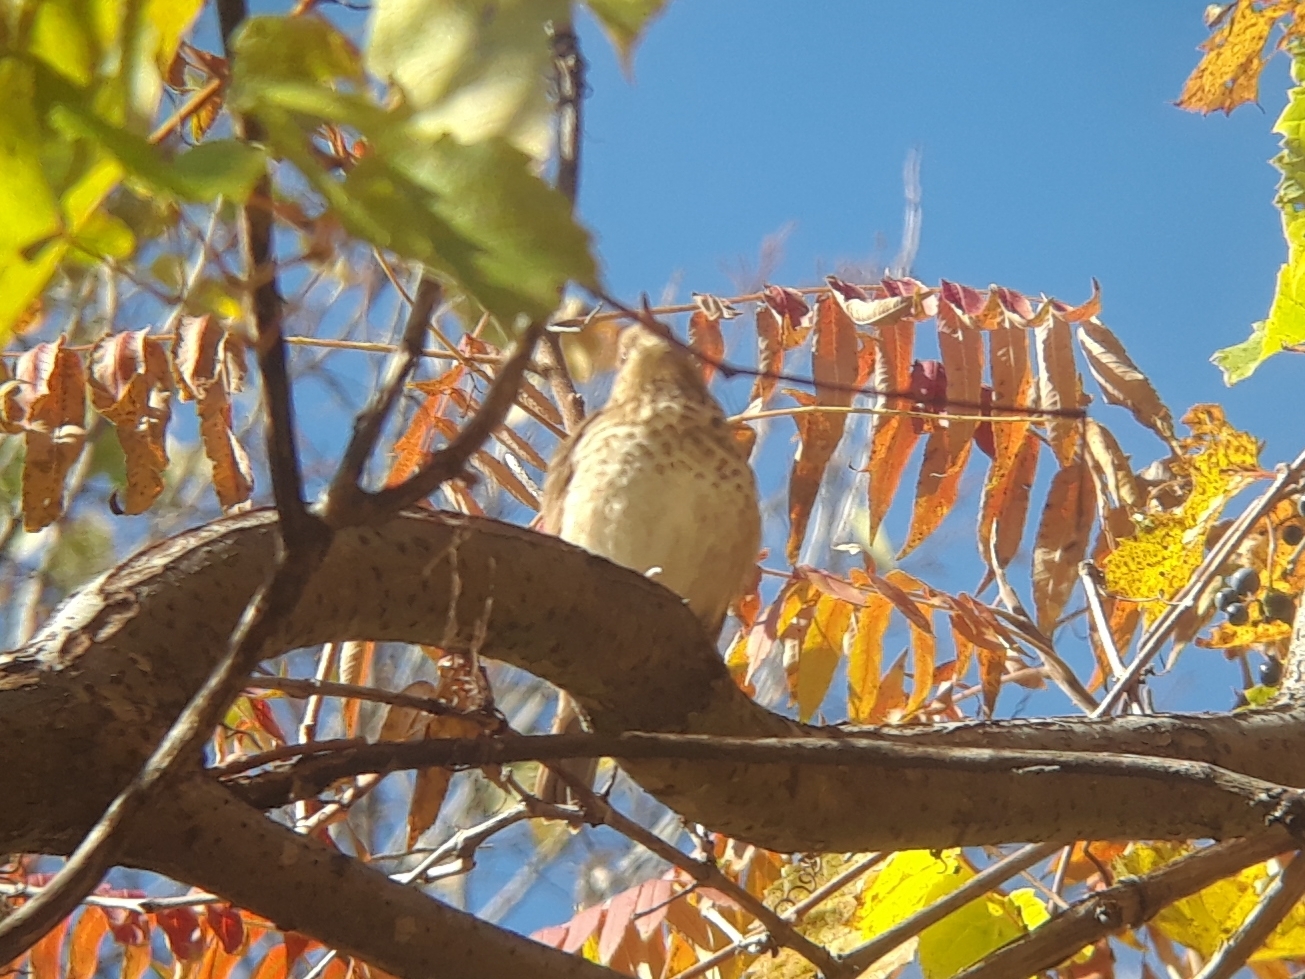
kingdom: Animalia
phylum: Chordata
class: Aves
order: Passeriformes
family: Turdidae
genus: Catharus
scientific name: Catharus guttatus
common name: Hermit thrush
